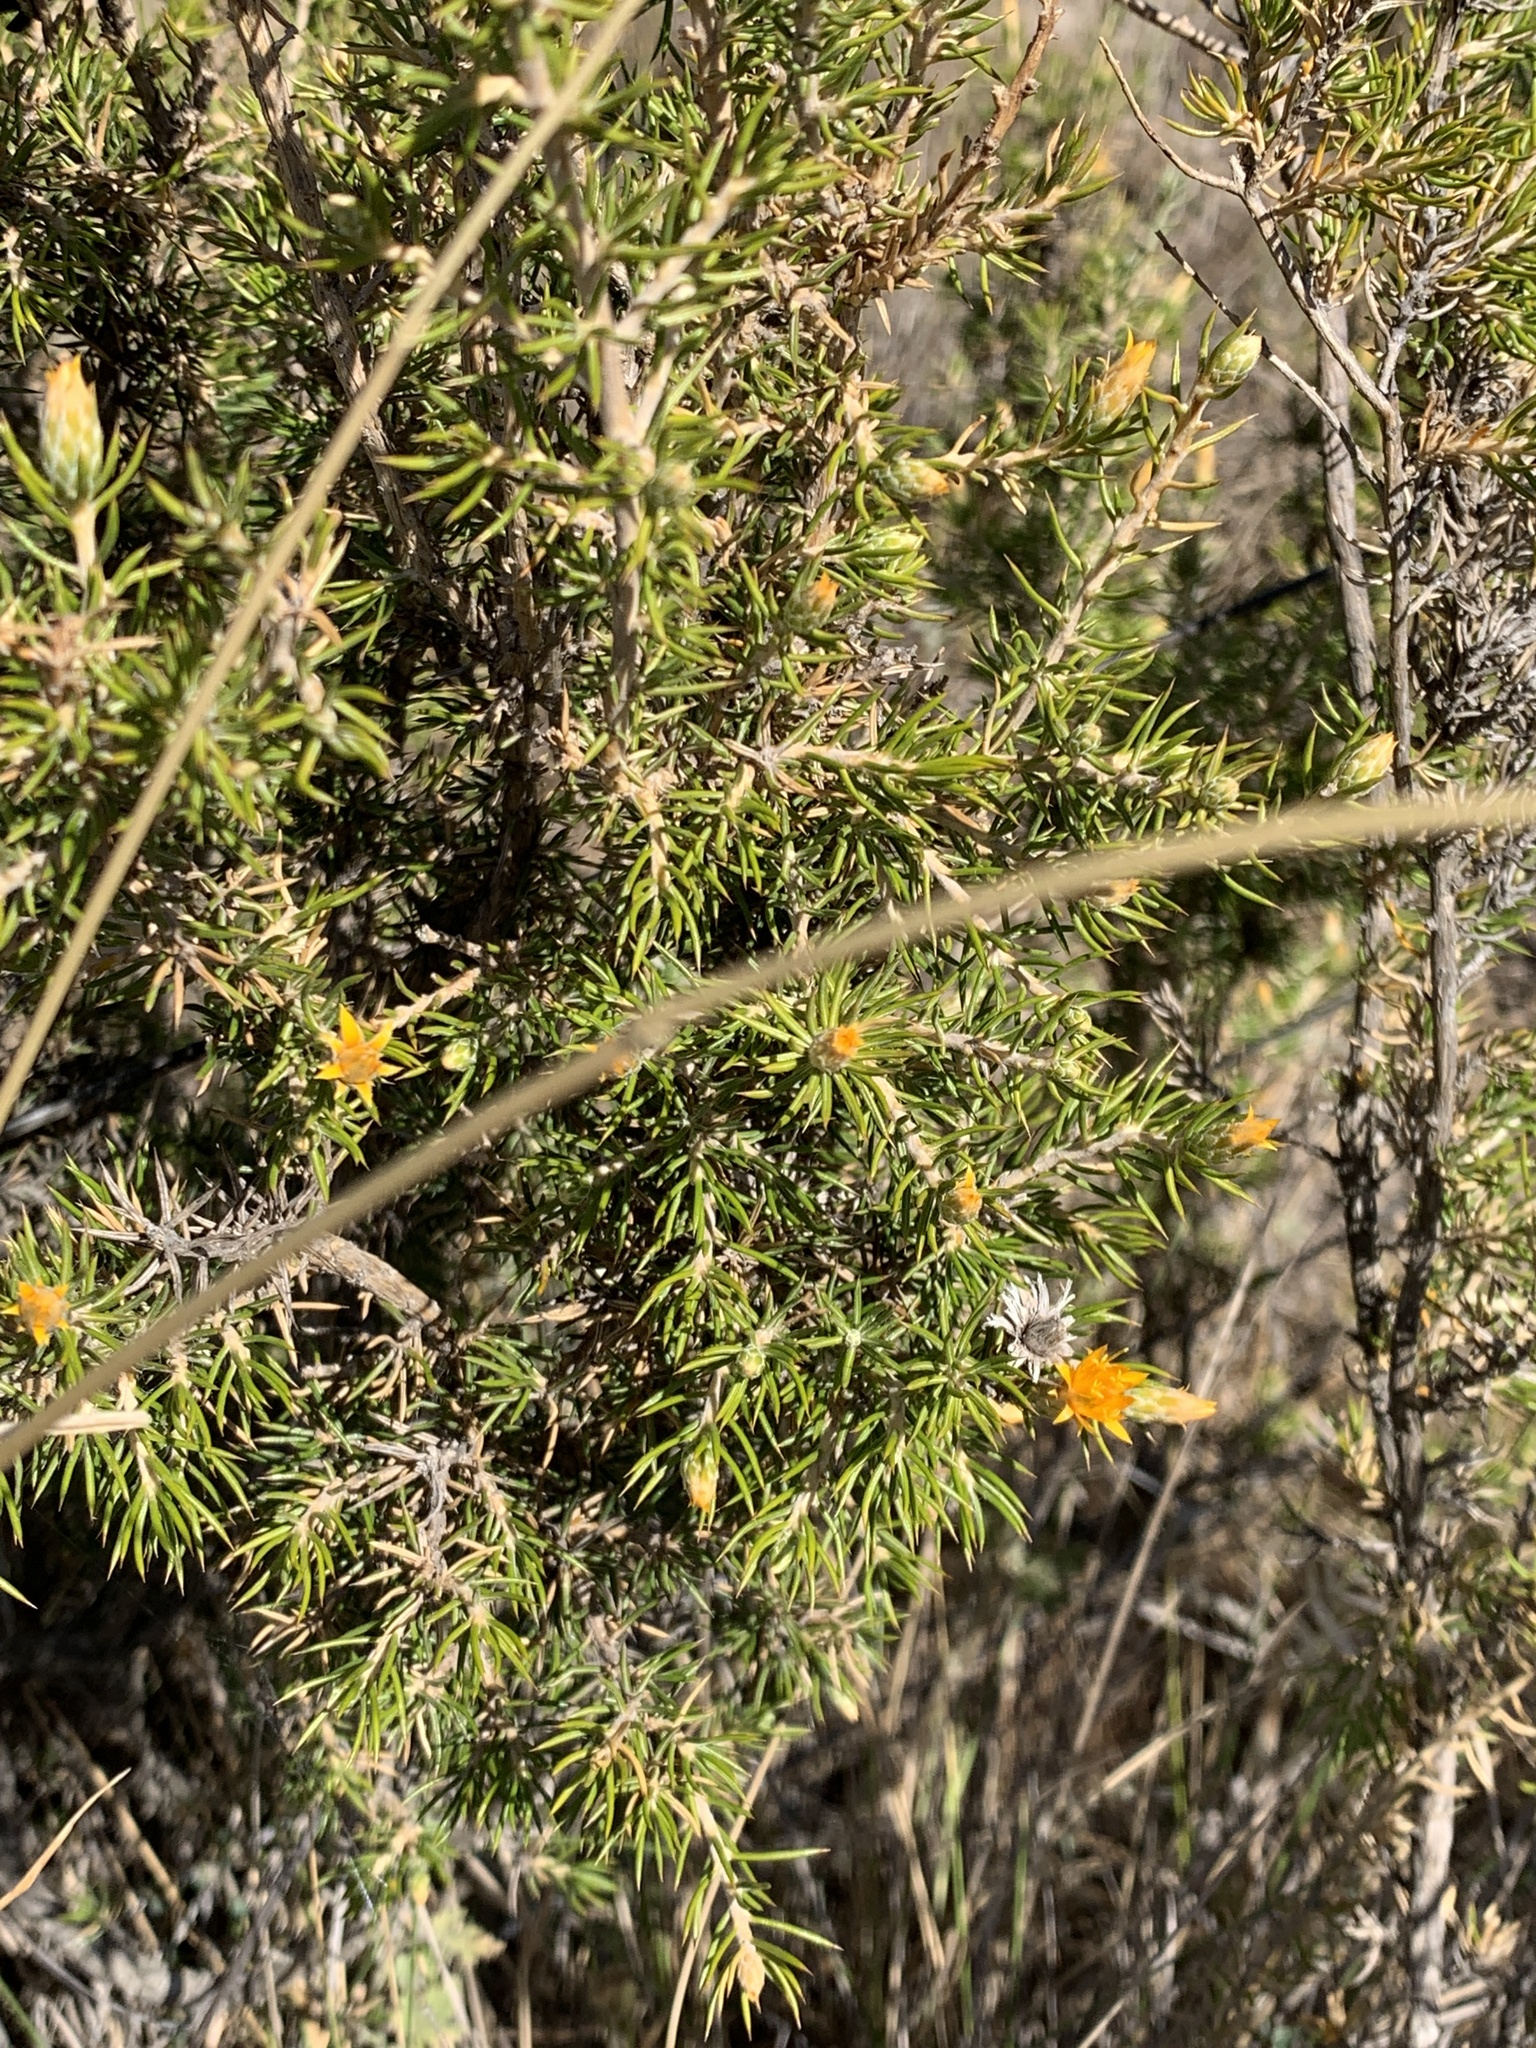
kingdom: Plantae
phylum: Tracheophyta
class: Magnoliopsida
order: Asterales
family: Asteraceae
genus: Chuquiraga
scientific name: Chuquiraga erinacea
